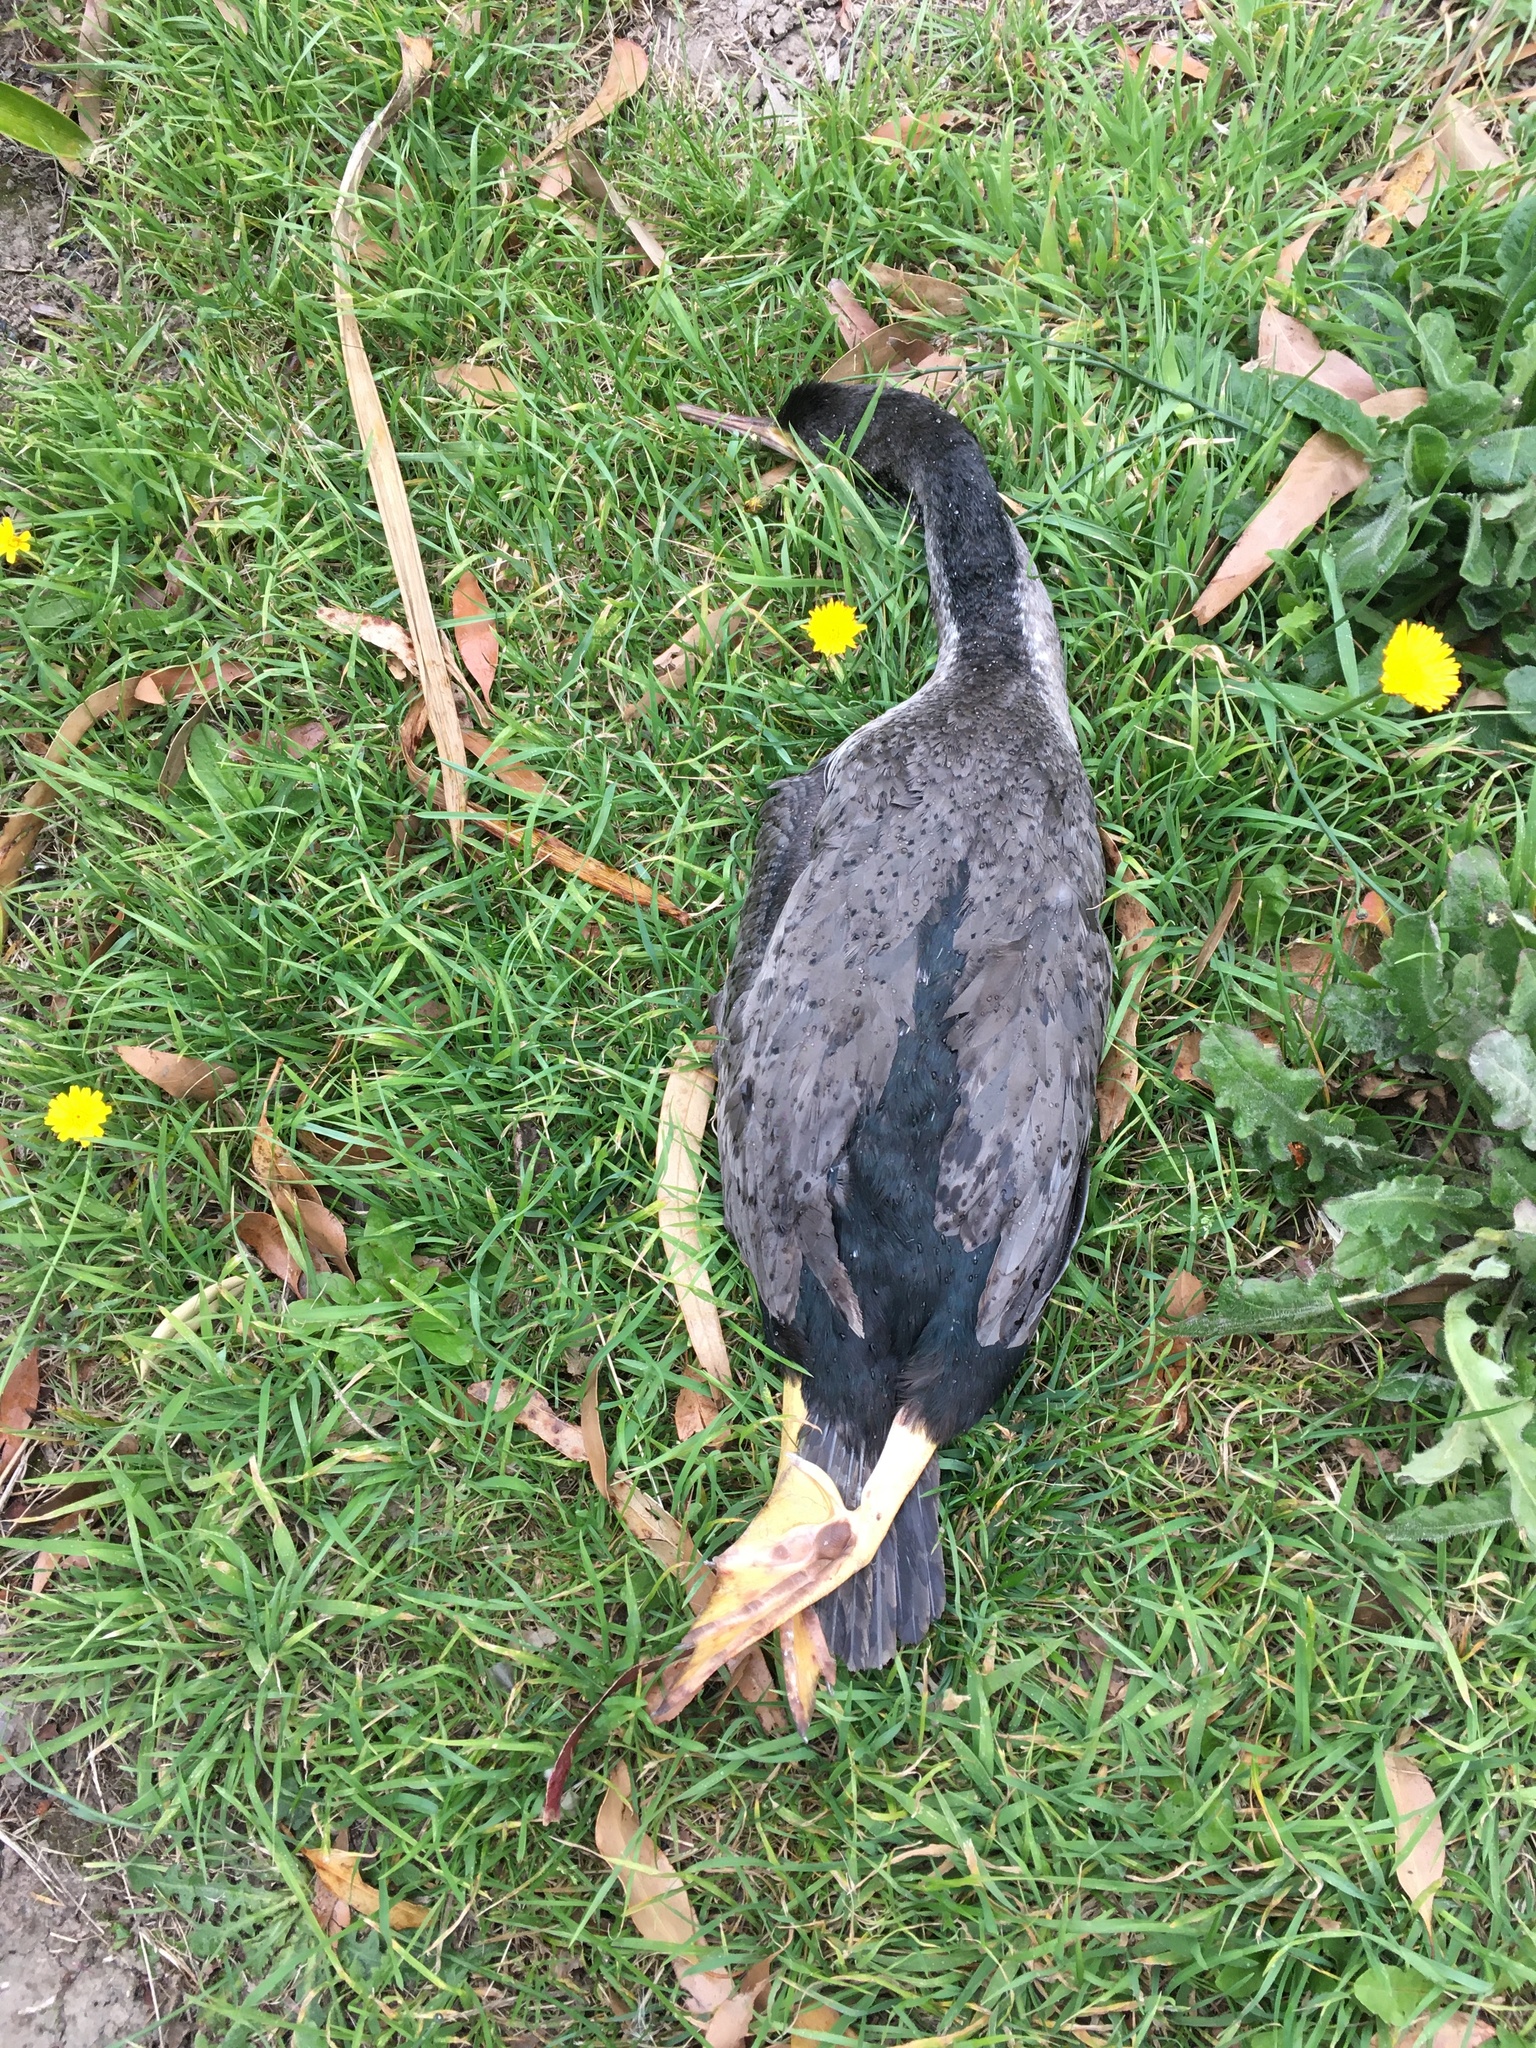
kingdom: Animalia
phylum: Chordata
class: Aves
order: Suliformes
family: Phalacrocoracidae
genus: Phalacrocorax
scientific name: Phalacrocorax punctatus
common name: Spotted shag
